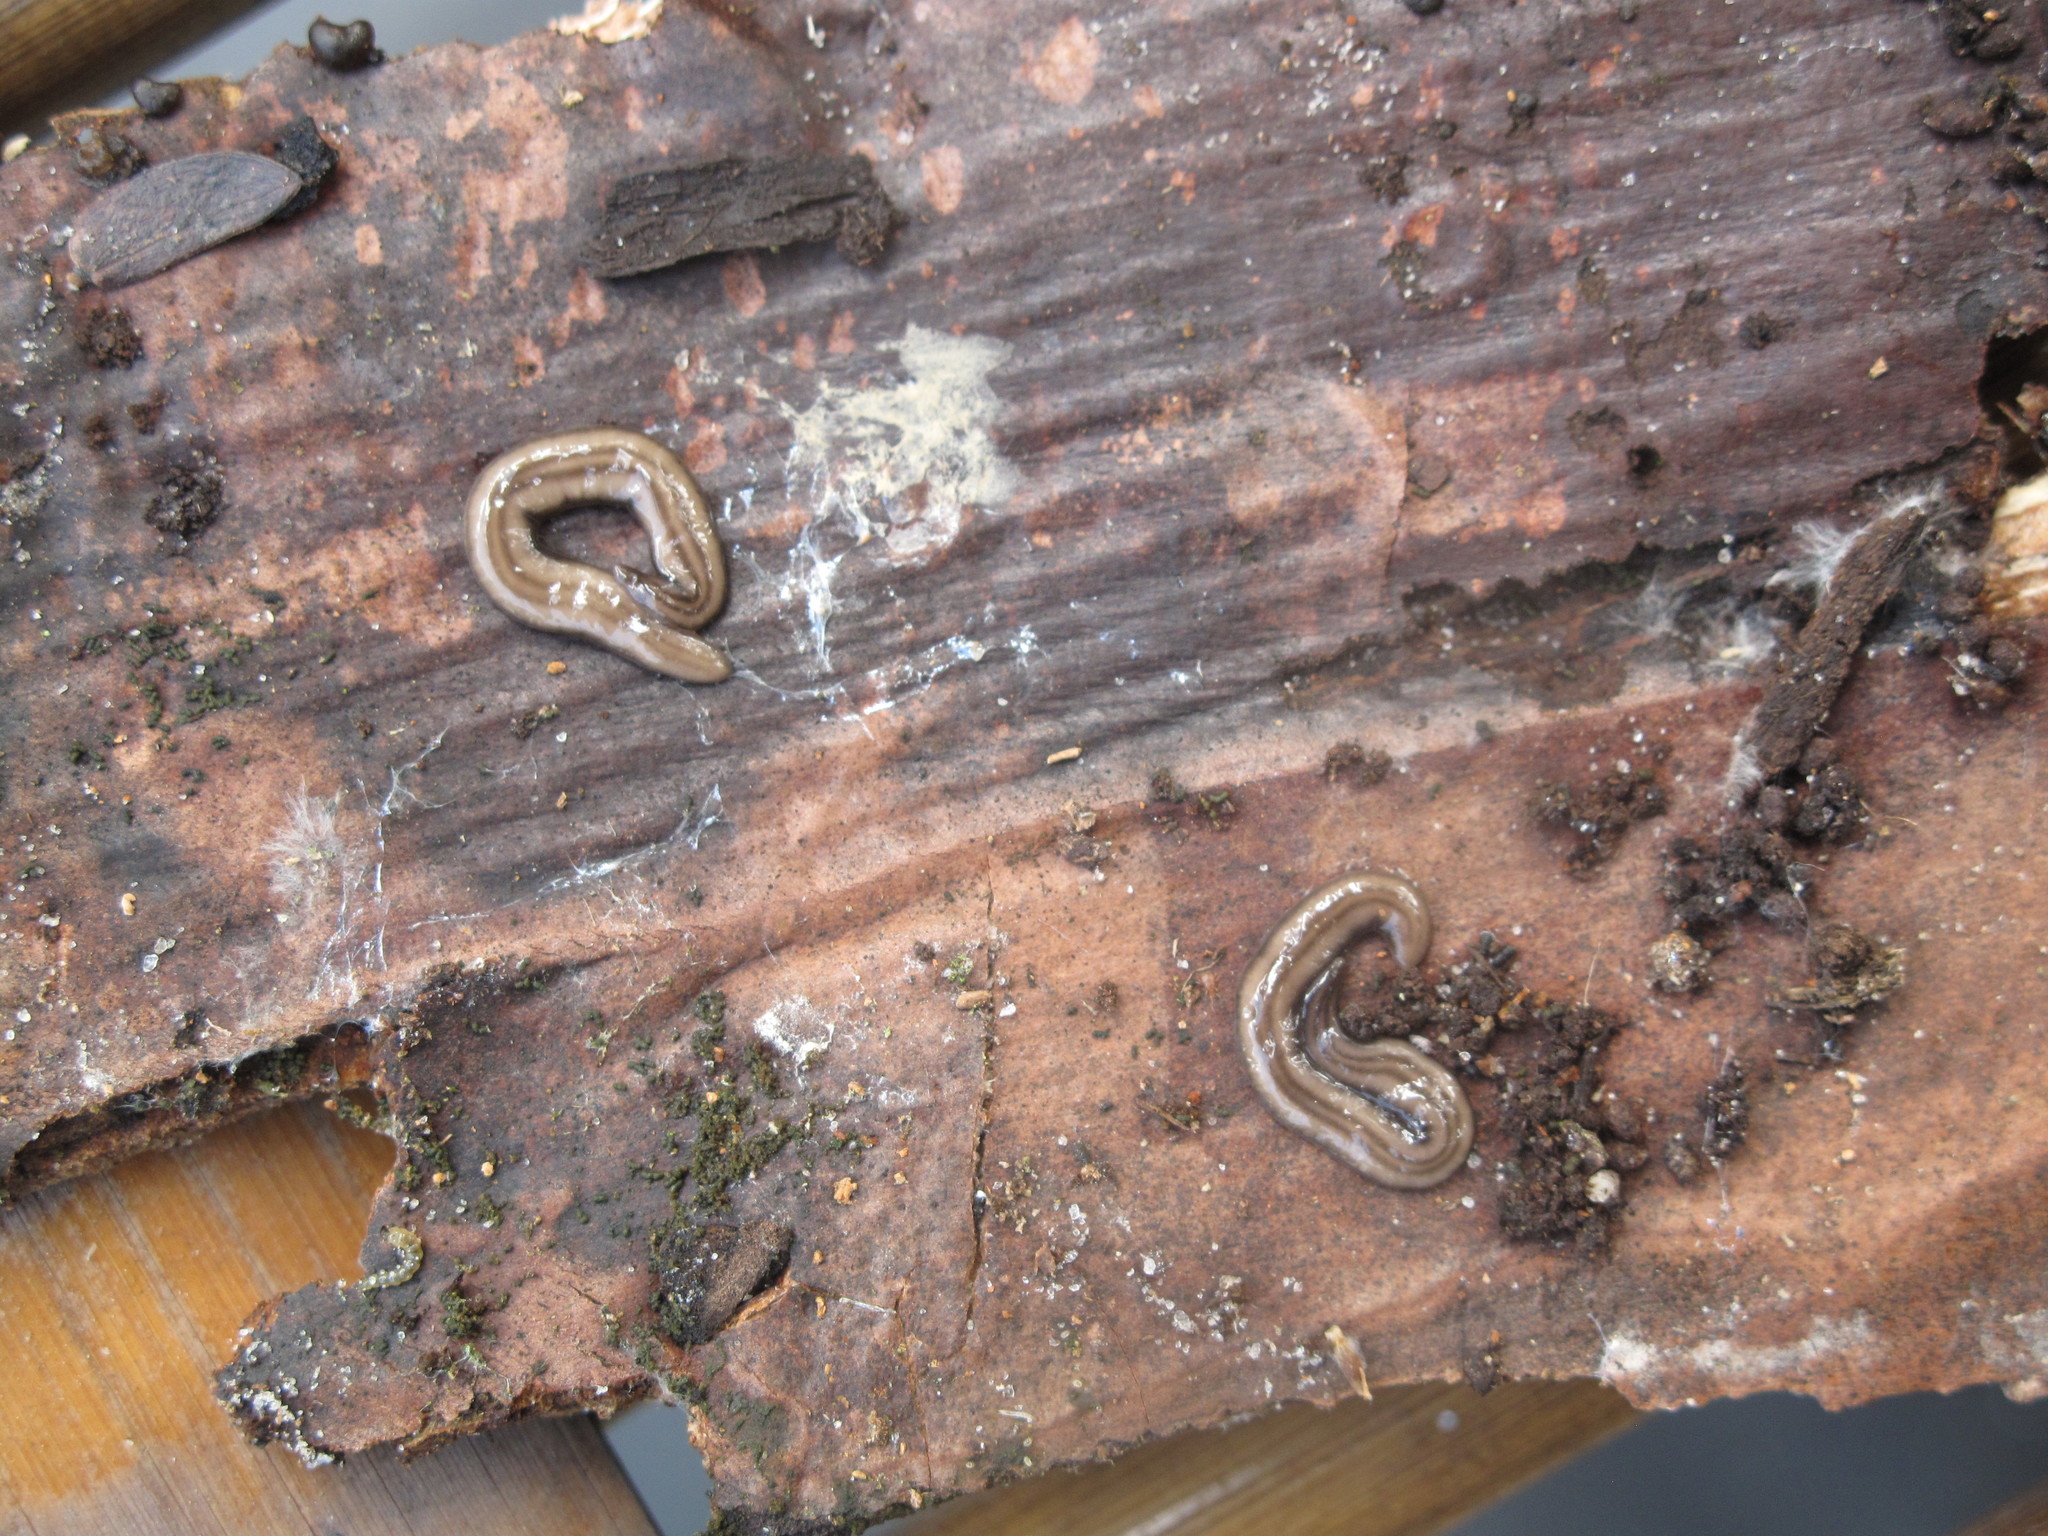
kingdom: Animalia
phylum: Platyhelminthes
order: Tricladida
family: Geoplanidae
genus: Rhynchodemus
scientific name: Rhynchodemus sylvaticus
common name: A flatworm
